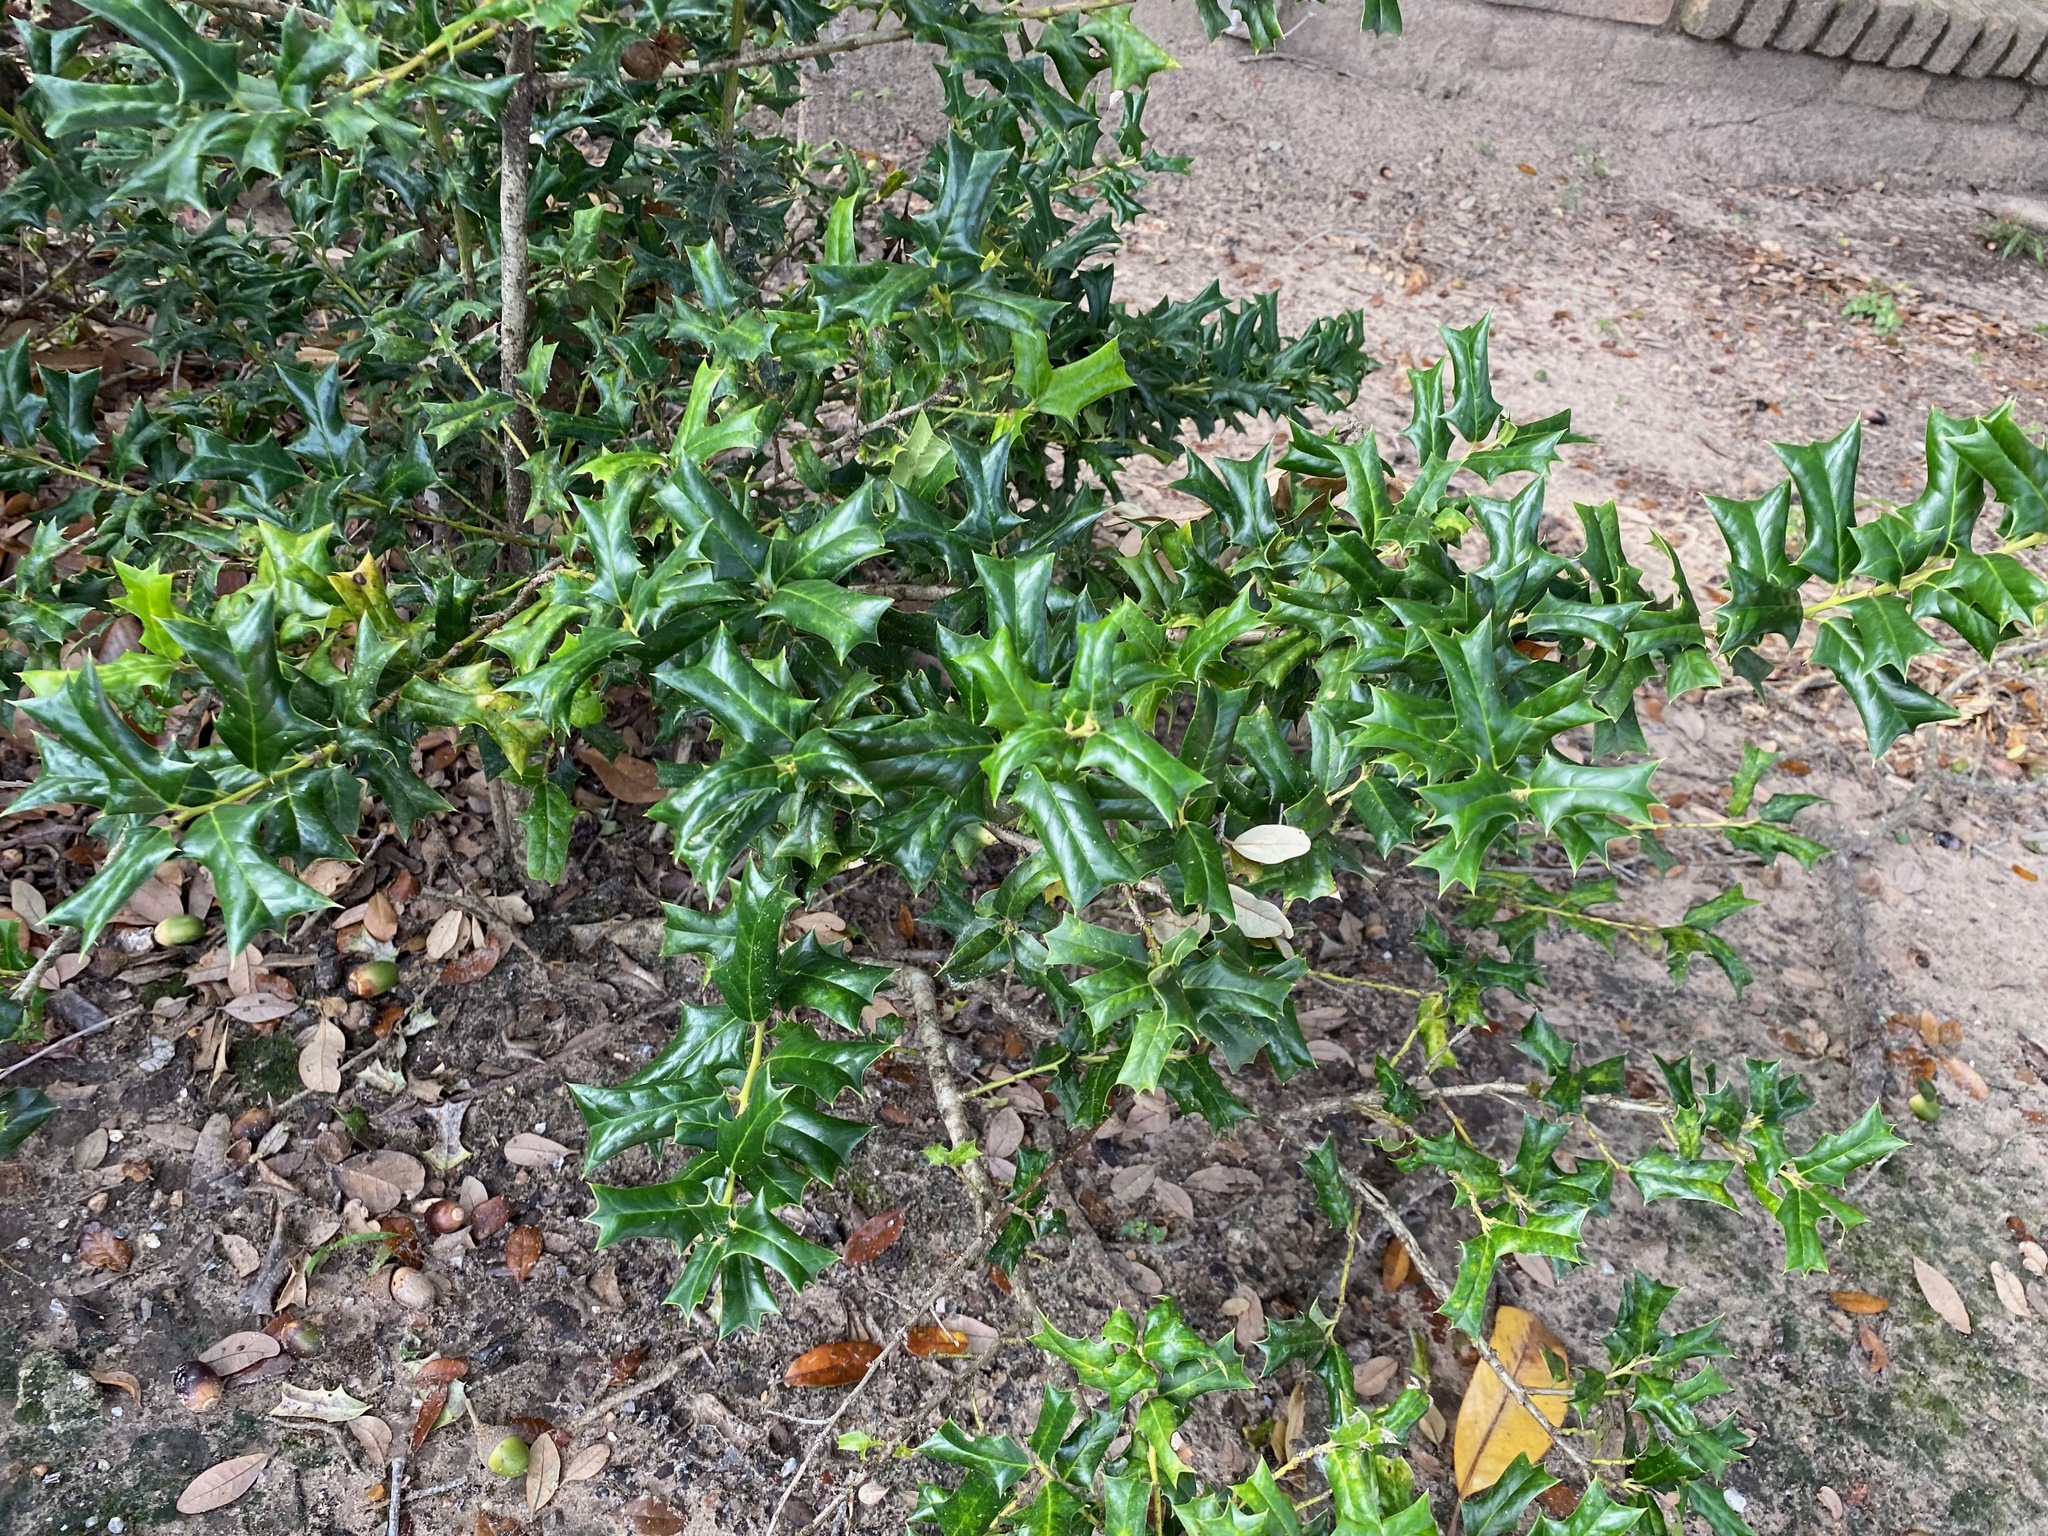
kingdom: Plantae
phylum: Tracheophyta
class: Magnoliopsida
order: Aquifoliales
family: Aquifoliaceae
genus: Ilex
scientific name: Ilex cornuta
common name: Chinese holly
